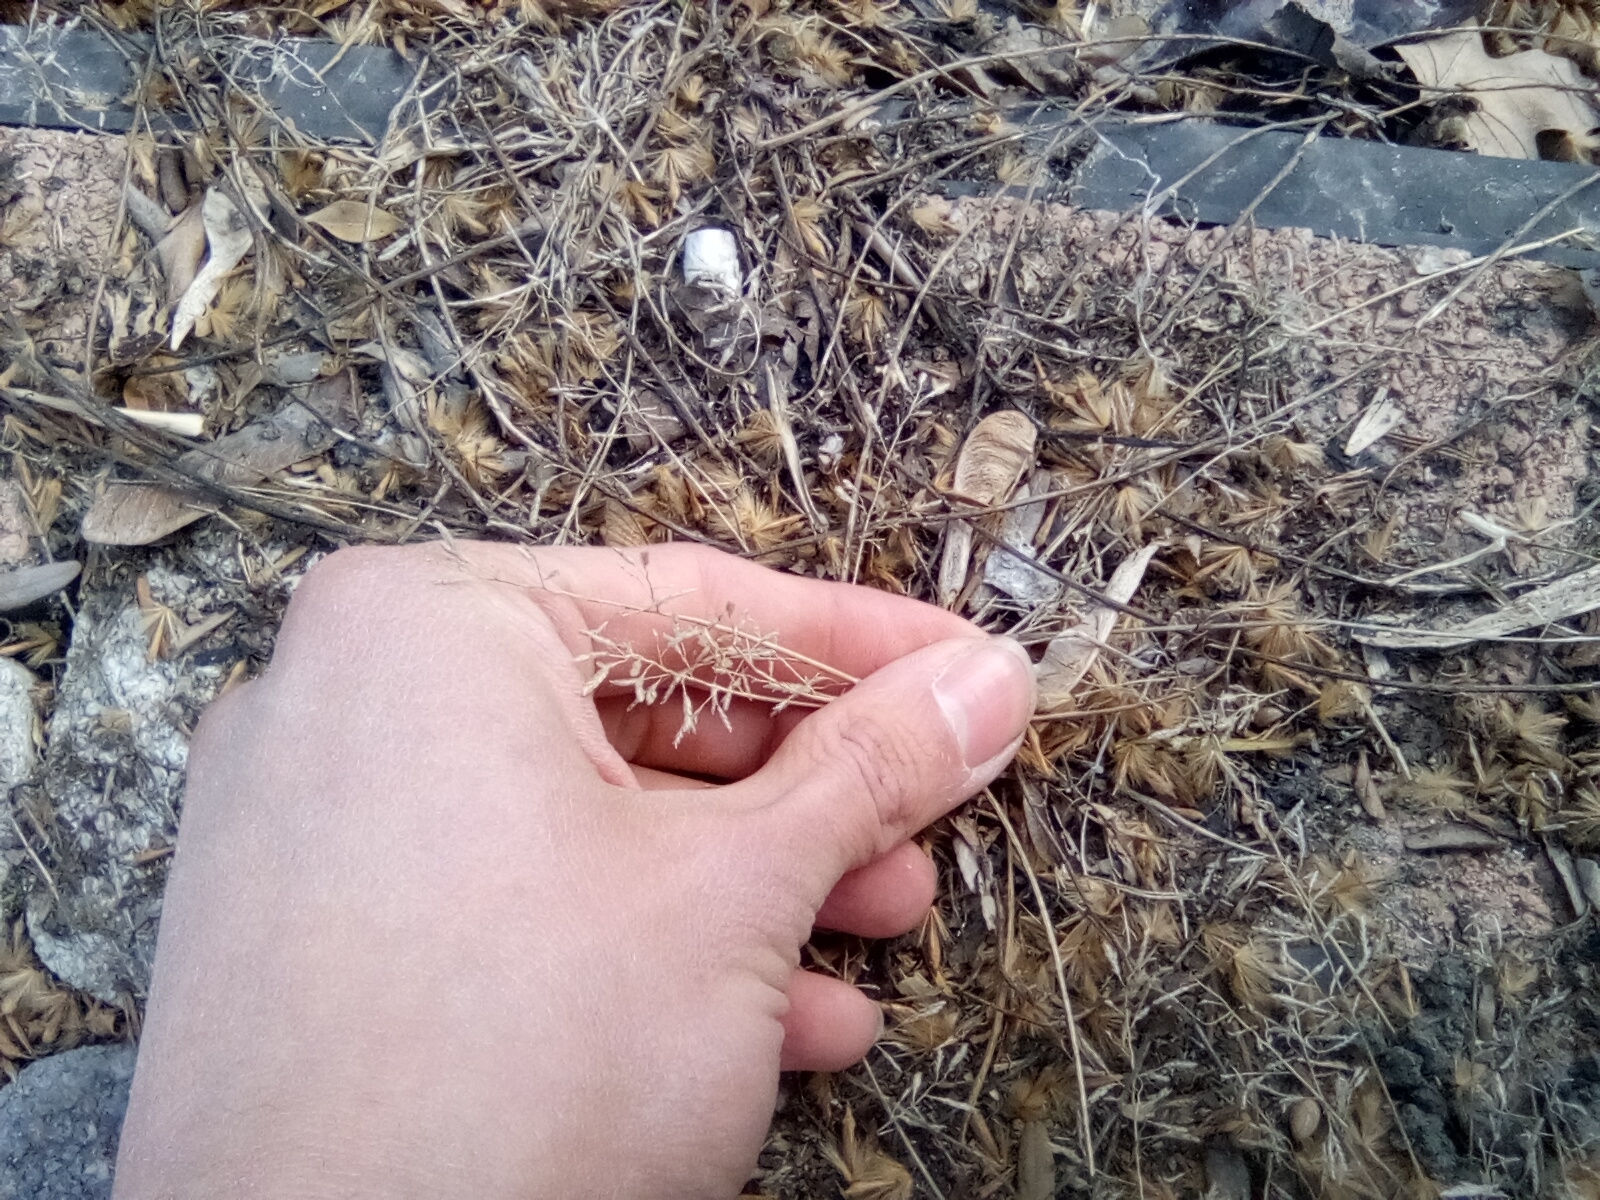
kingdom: Plantae
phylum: Tracheophyta
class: Liliopsida
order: Poales
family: Poaceae
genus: Eragrostis
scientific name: Eragrostis minor
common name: Small love-grass
